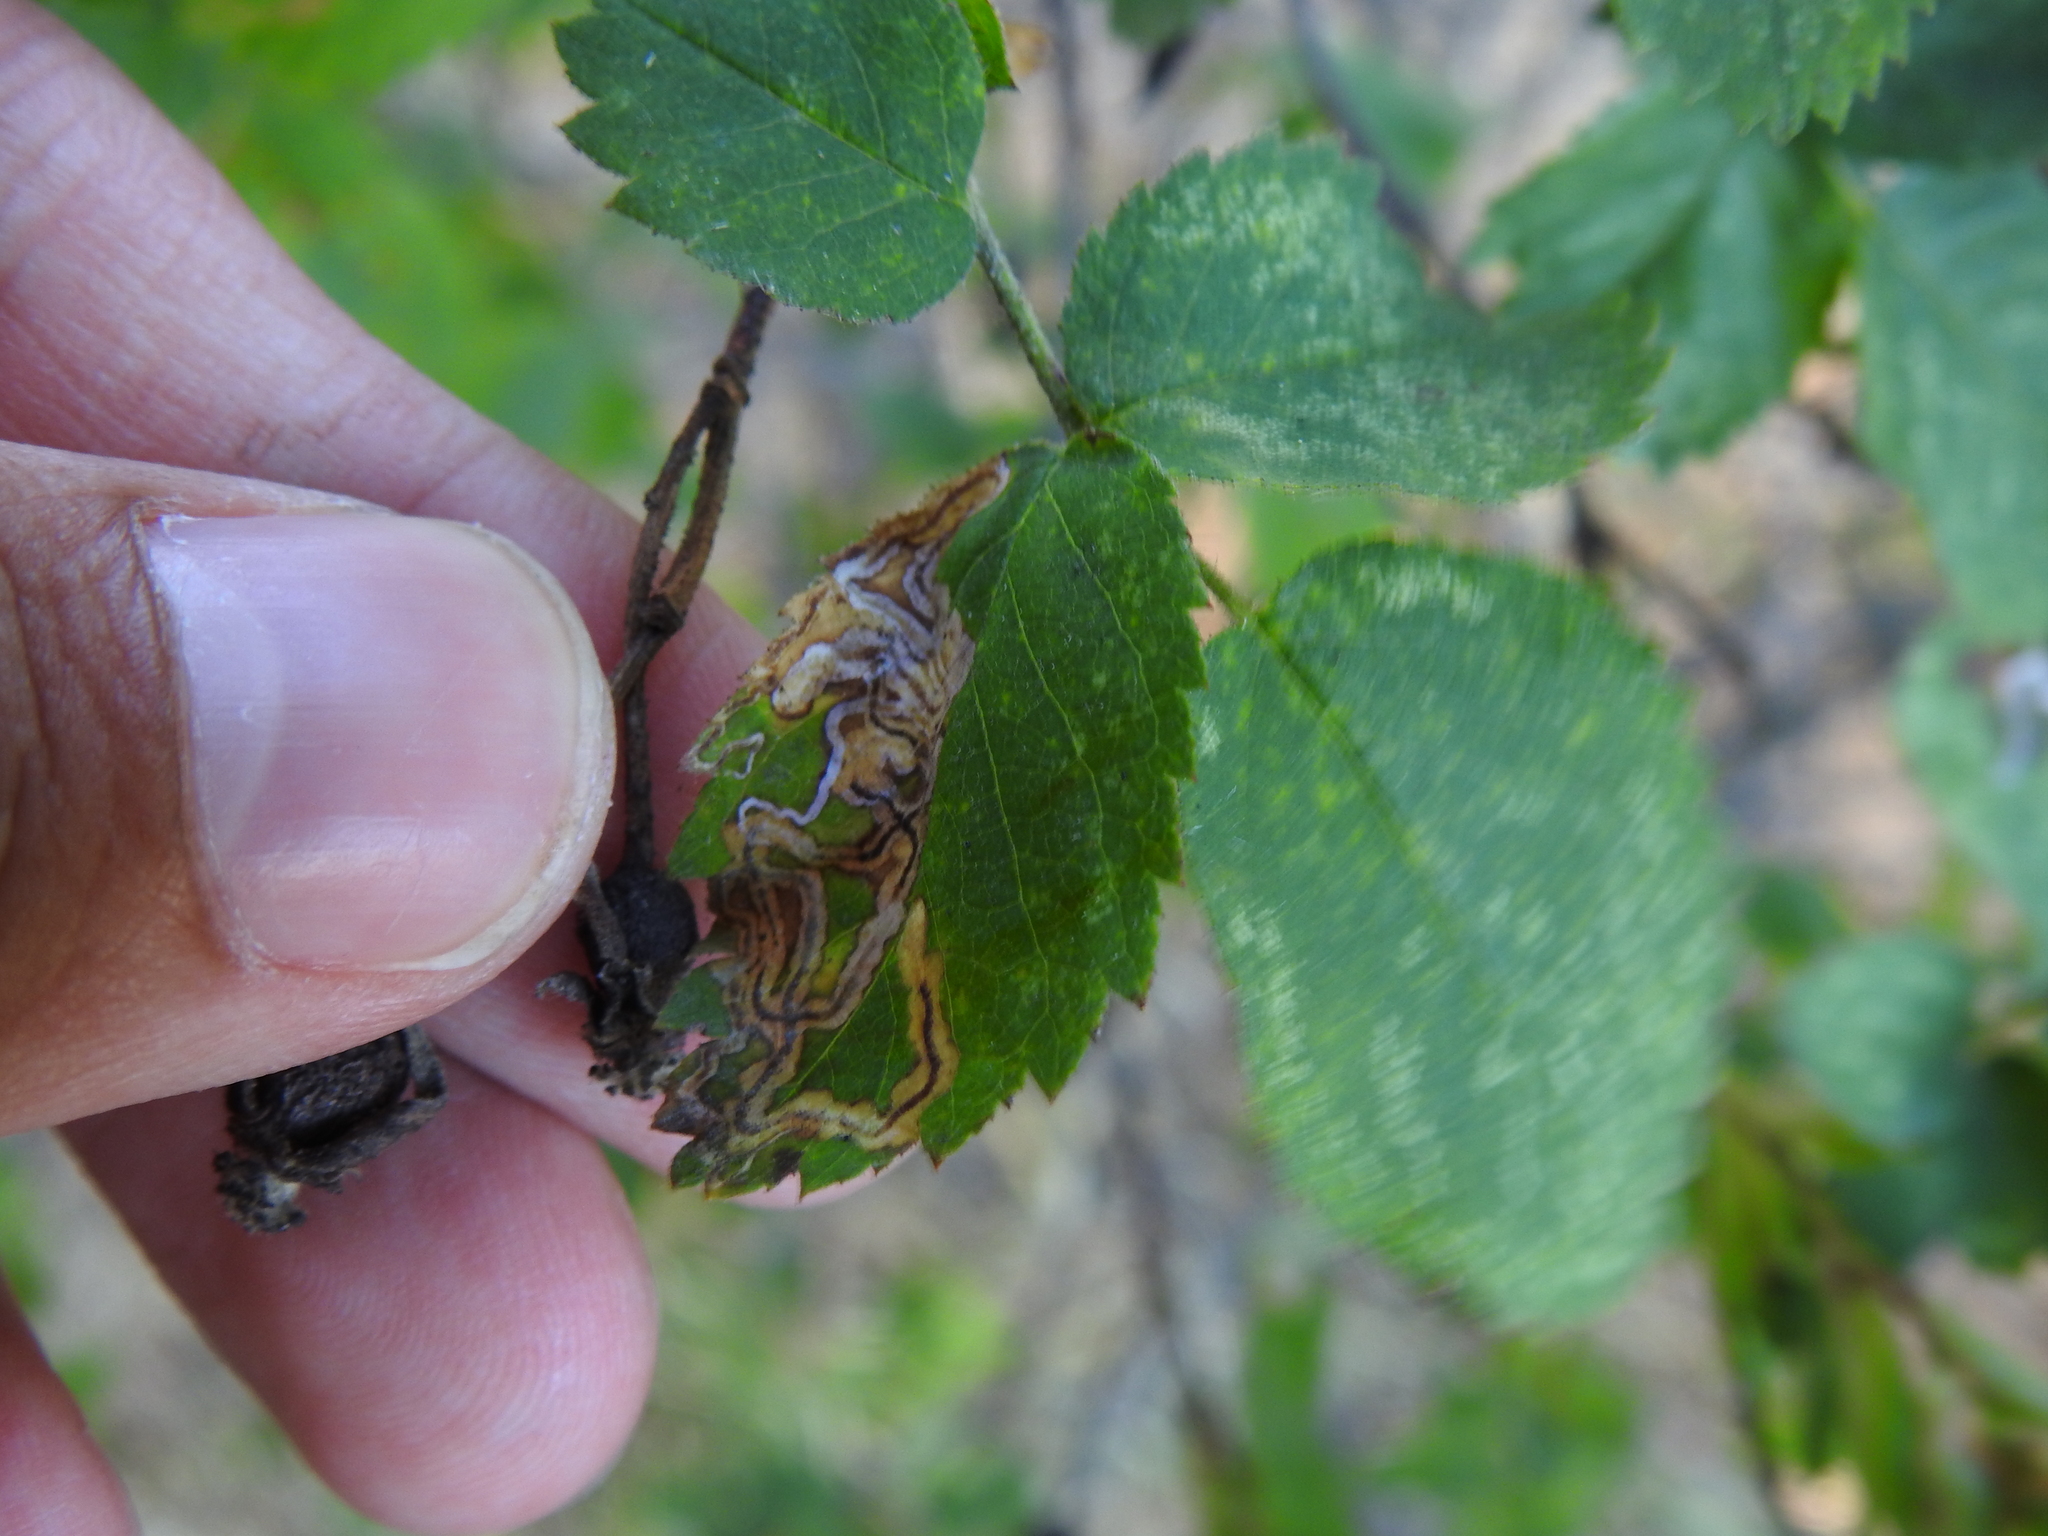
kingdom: Animalia
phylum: Arthropoda
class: Insecta
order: Lepidoptera
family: Nepticulidae
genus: Stigmella
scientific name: Stigmella centifoliella
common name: Narrow-barred pigmy
